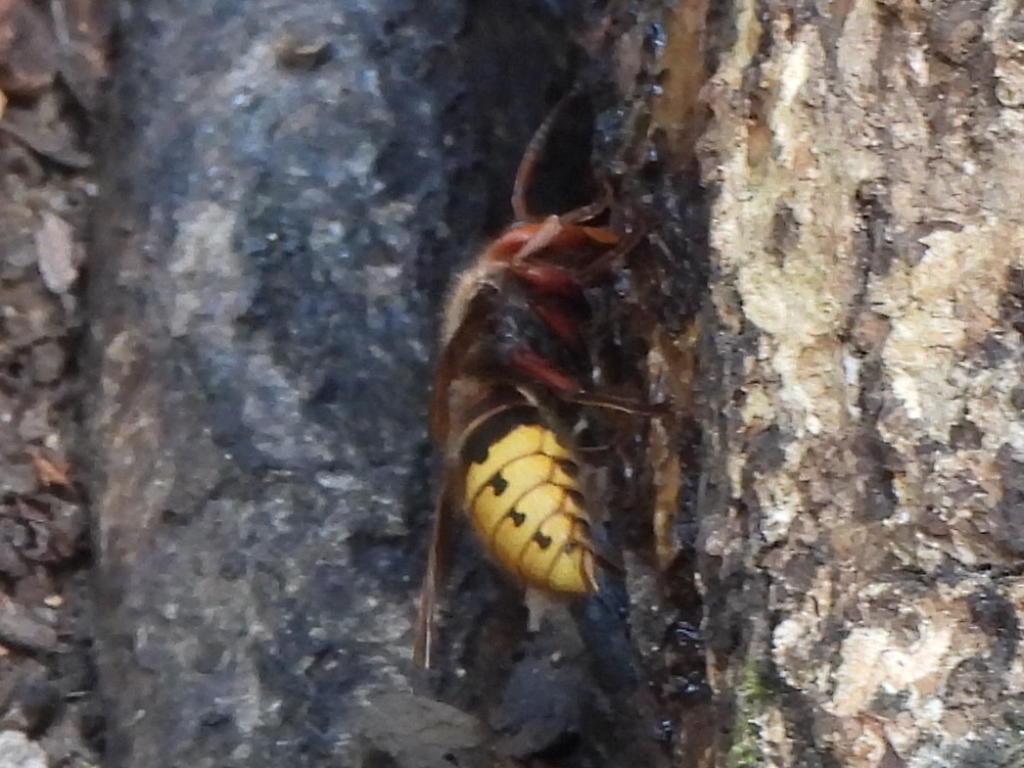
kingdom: Animalia
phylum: Arthropoda
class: Insecta
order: Hymenoptera
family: Vespidae
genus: Vespa
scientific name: Vespa crabro
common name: Hornet
